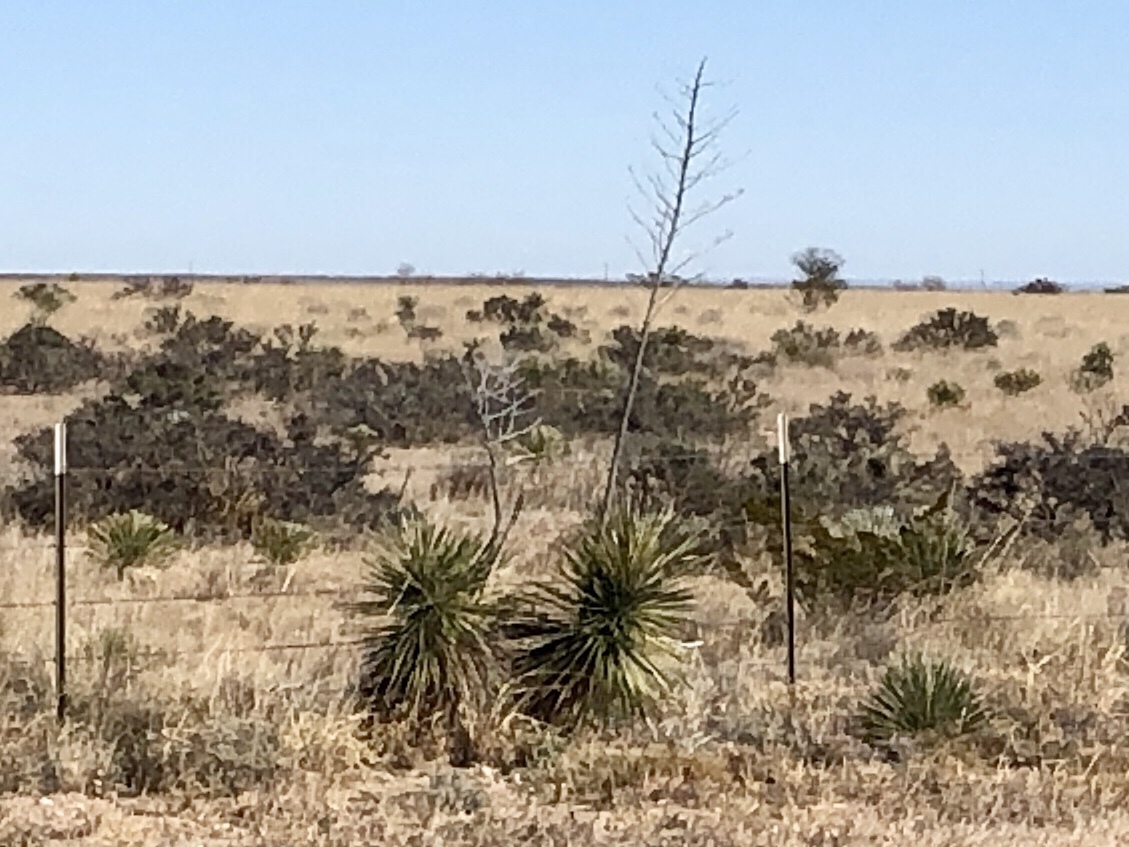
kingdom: Plantae
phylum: Tracheophyta
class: Liliopsida
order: Asparagales
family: Asparagaceae
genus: Yucca
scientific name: Yucca elata
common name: Palmella
